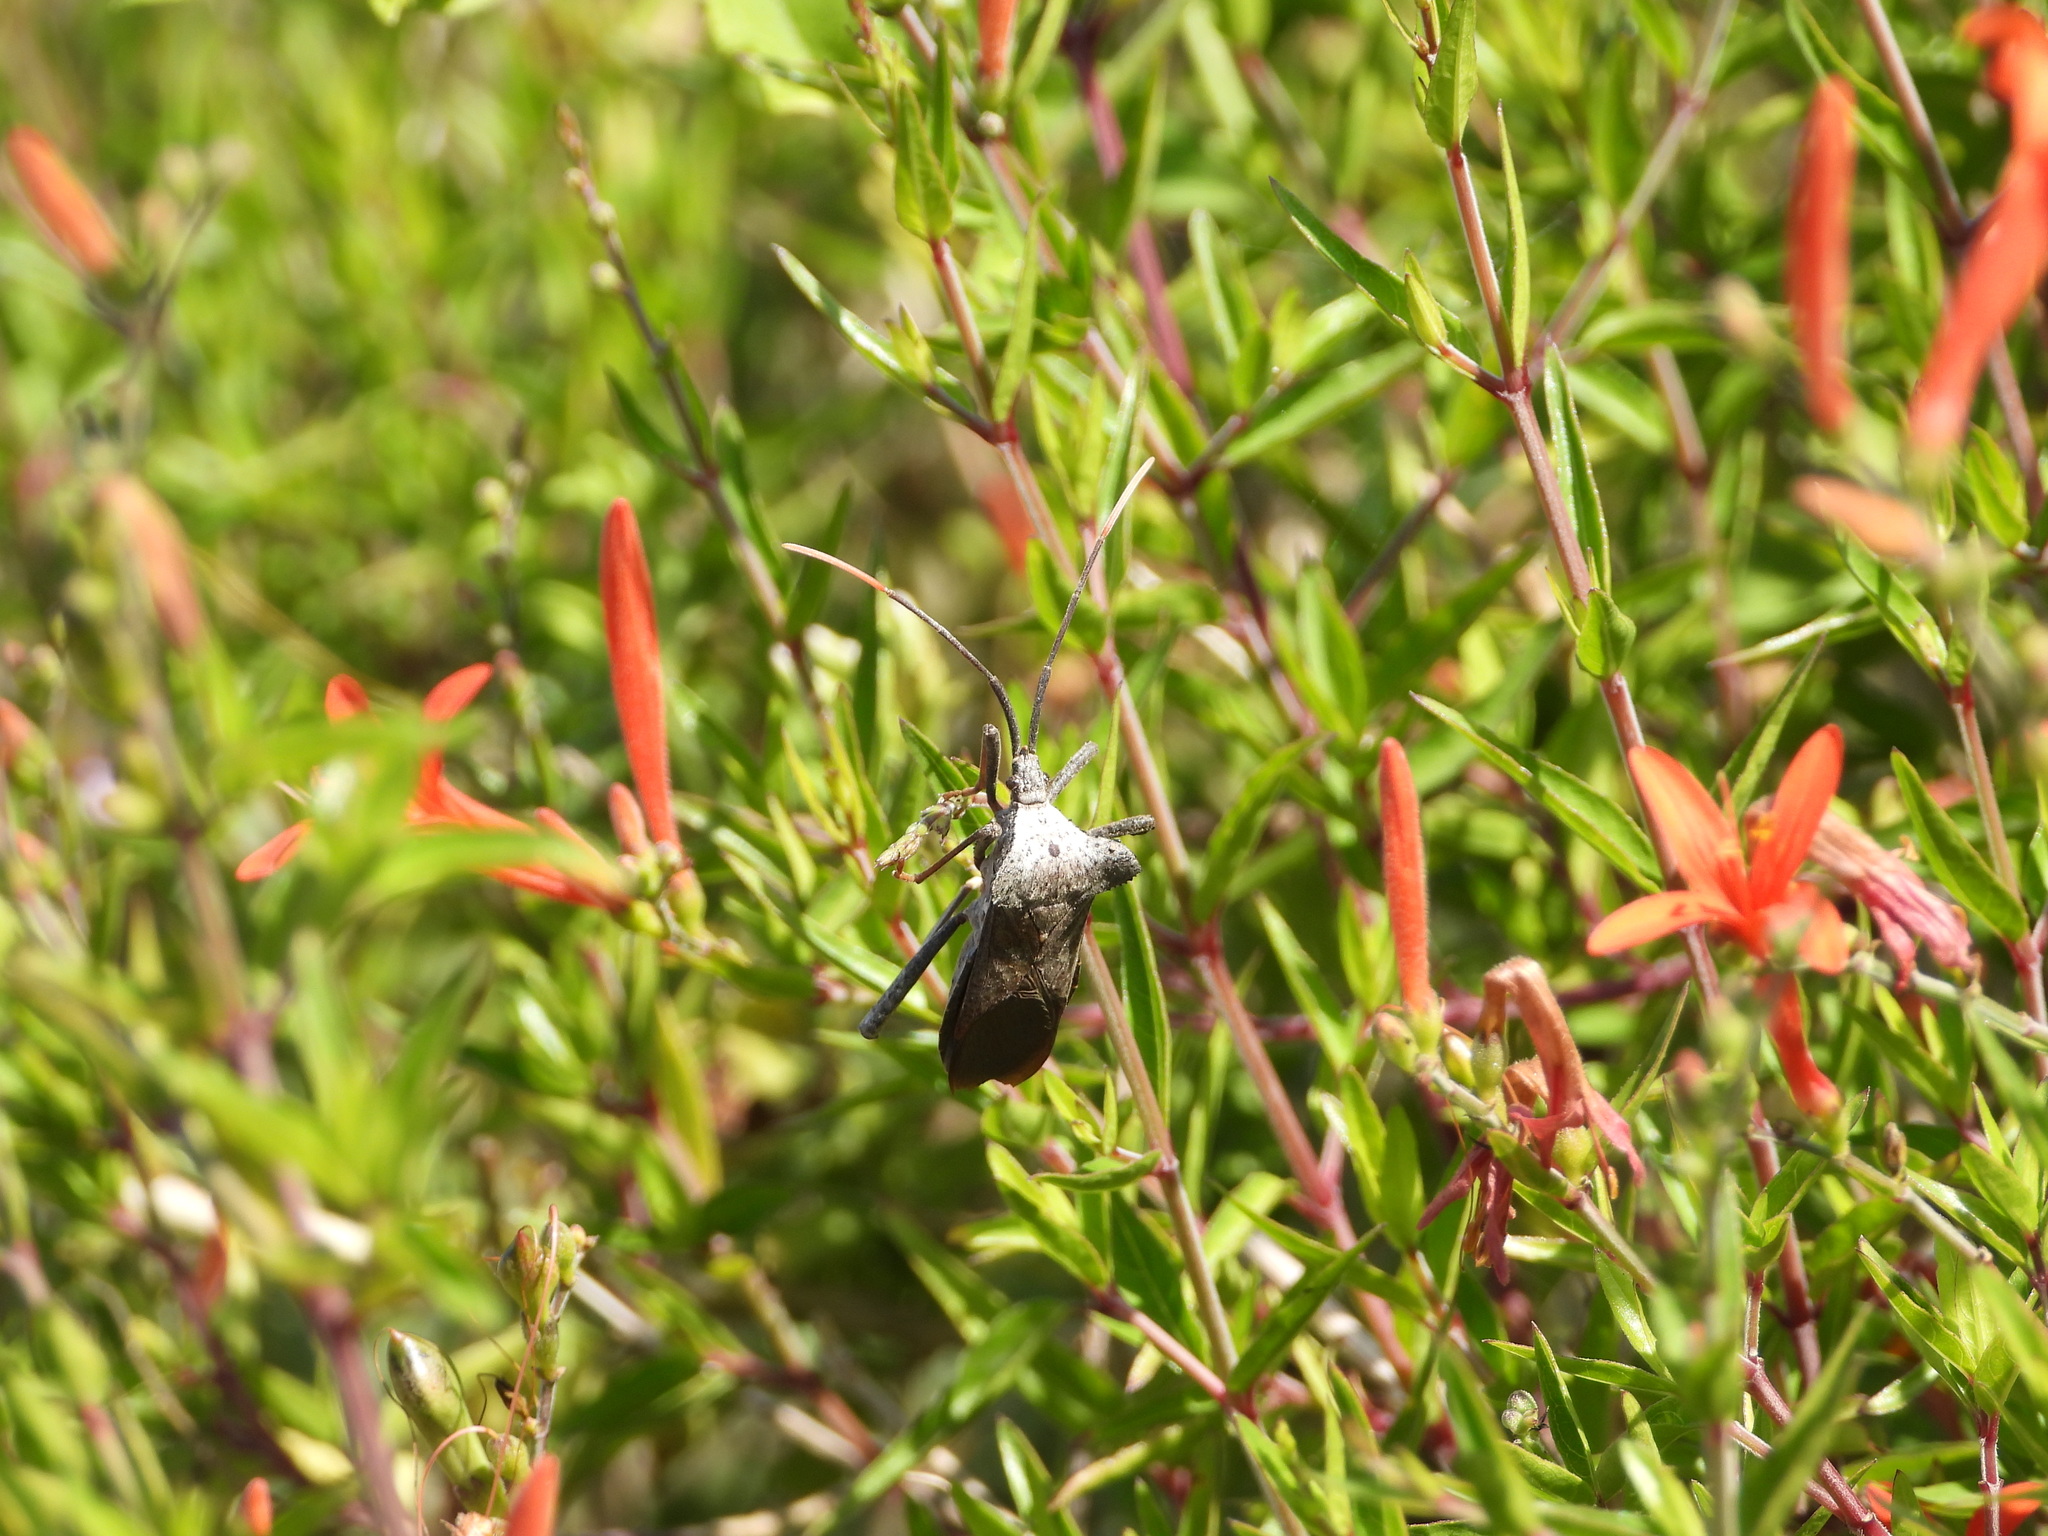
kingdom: Animalia
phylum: Arthropoda
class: Insecta
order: Hemiptera
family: Coreidae
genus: Acanthocephala
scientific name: Acanthocephala alata
